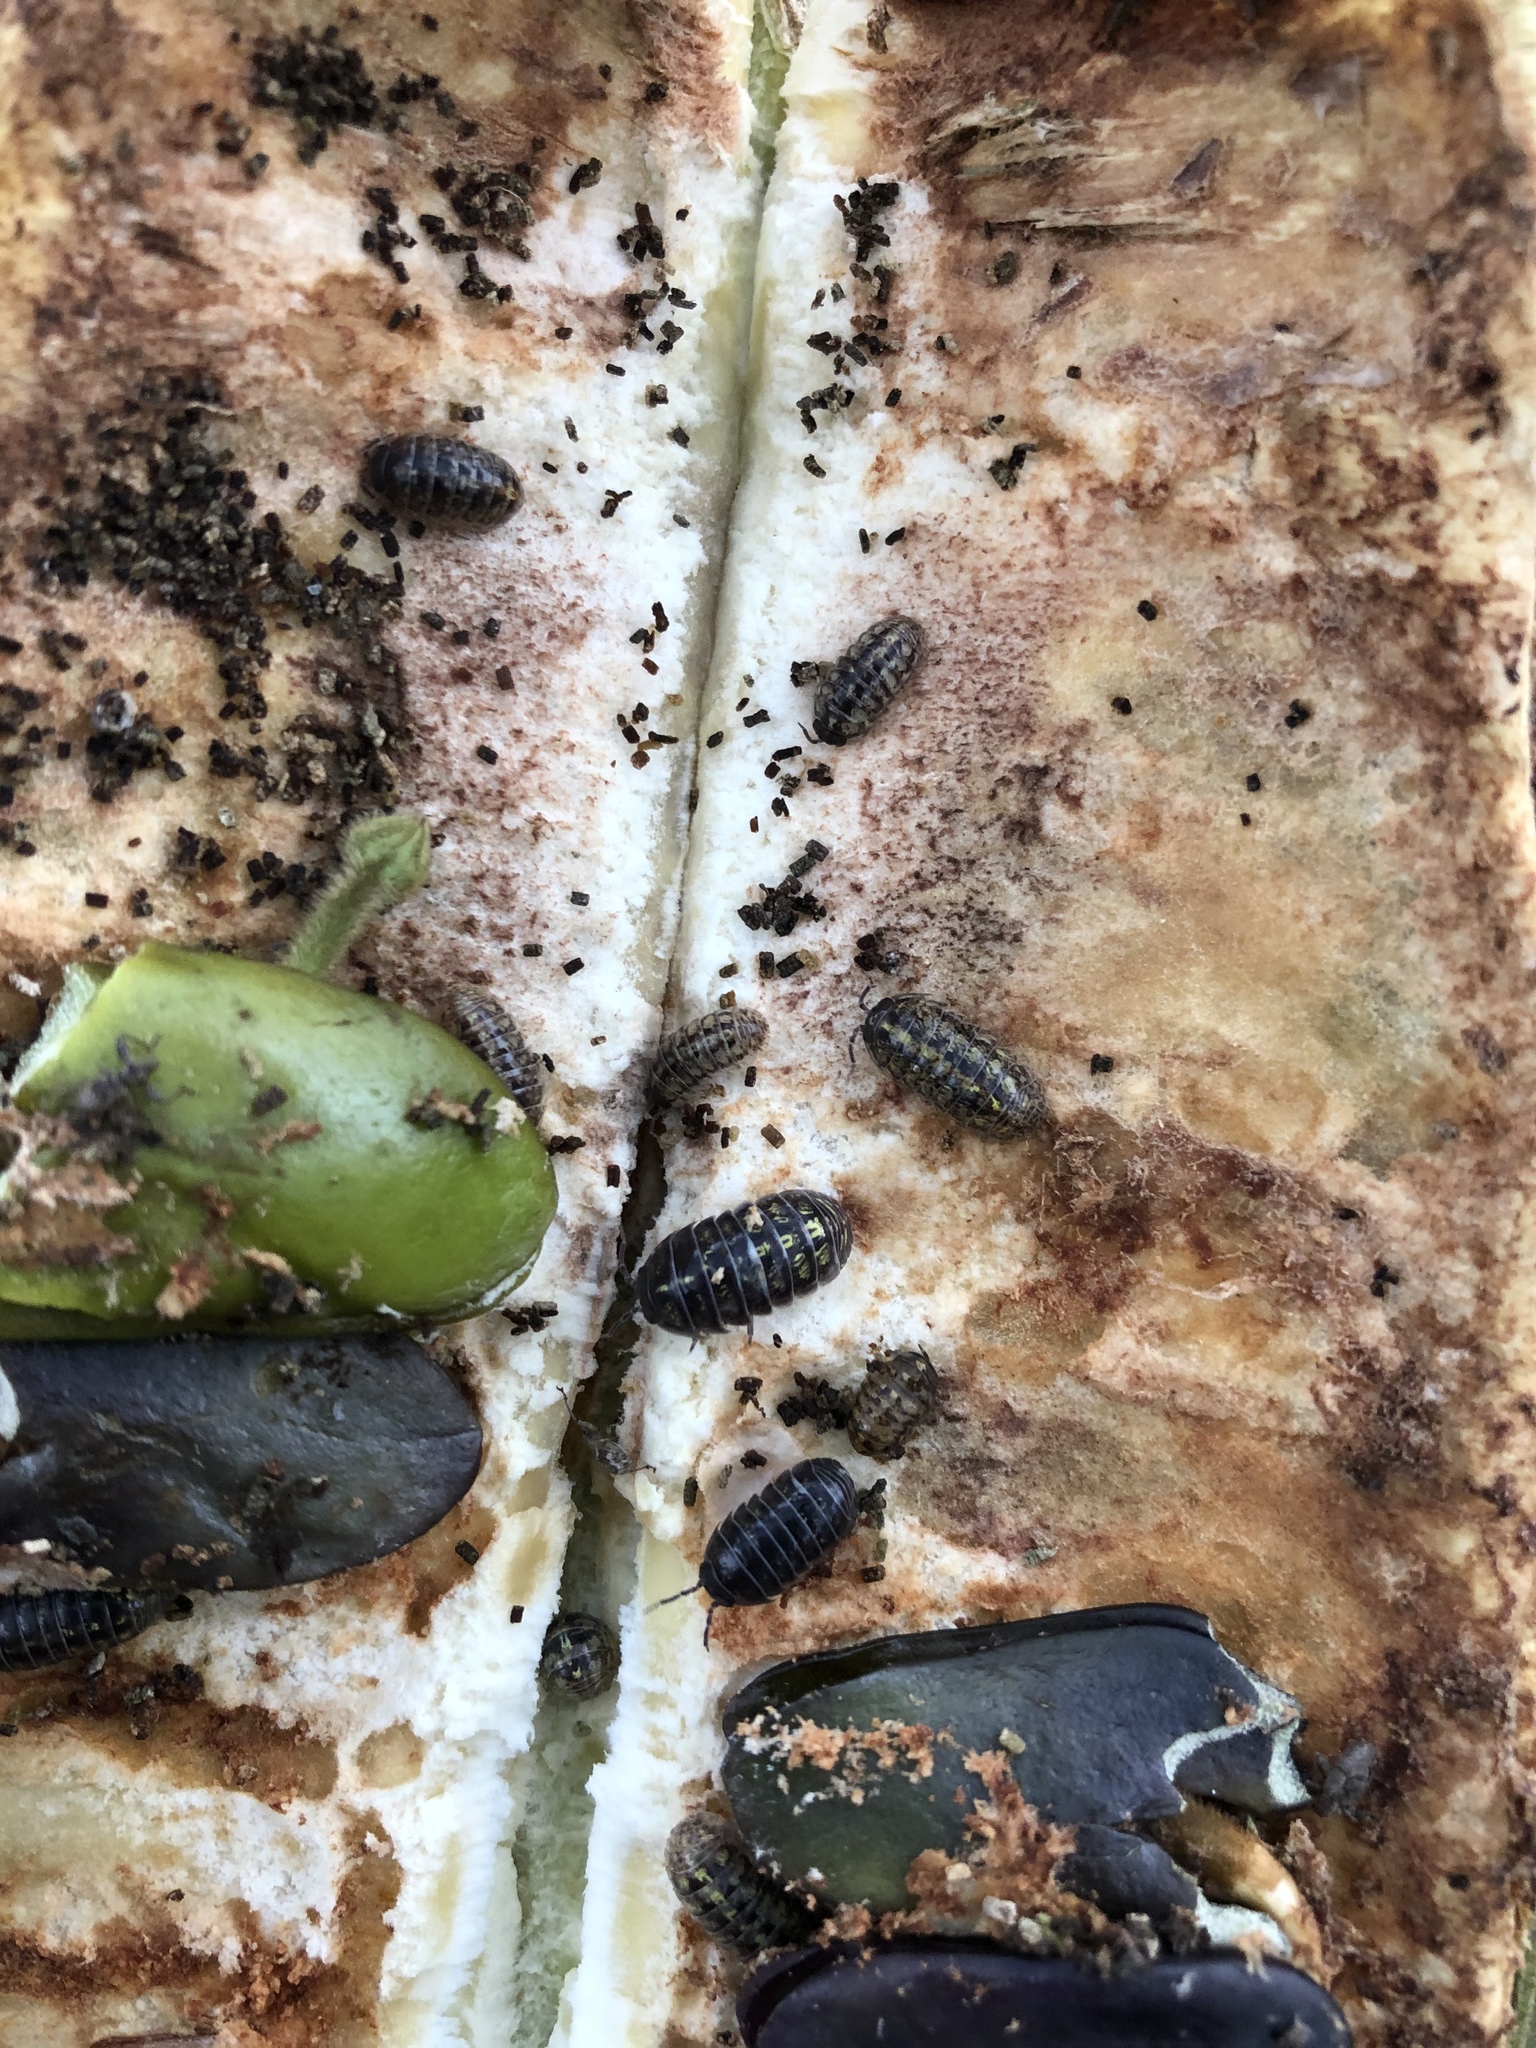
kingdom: Animalia
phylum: Arthropoda
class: Malacostraca
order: Isopoda
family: Porcellionidae
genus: Porcellio
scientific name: Porcellio laevis
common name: Swift woodlouse
